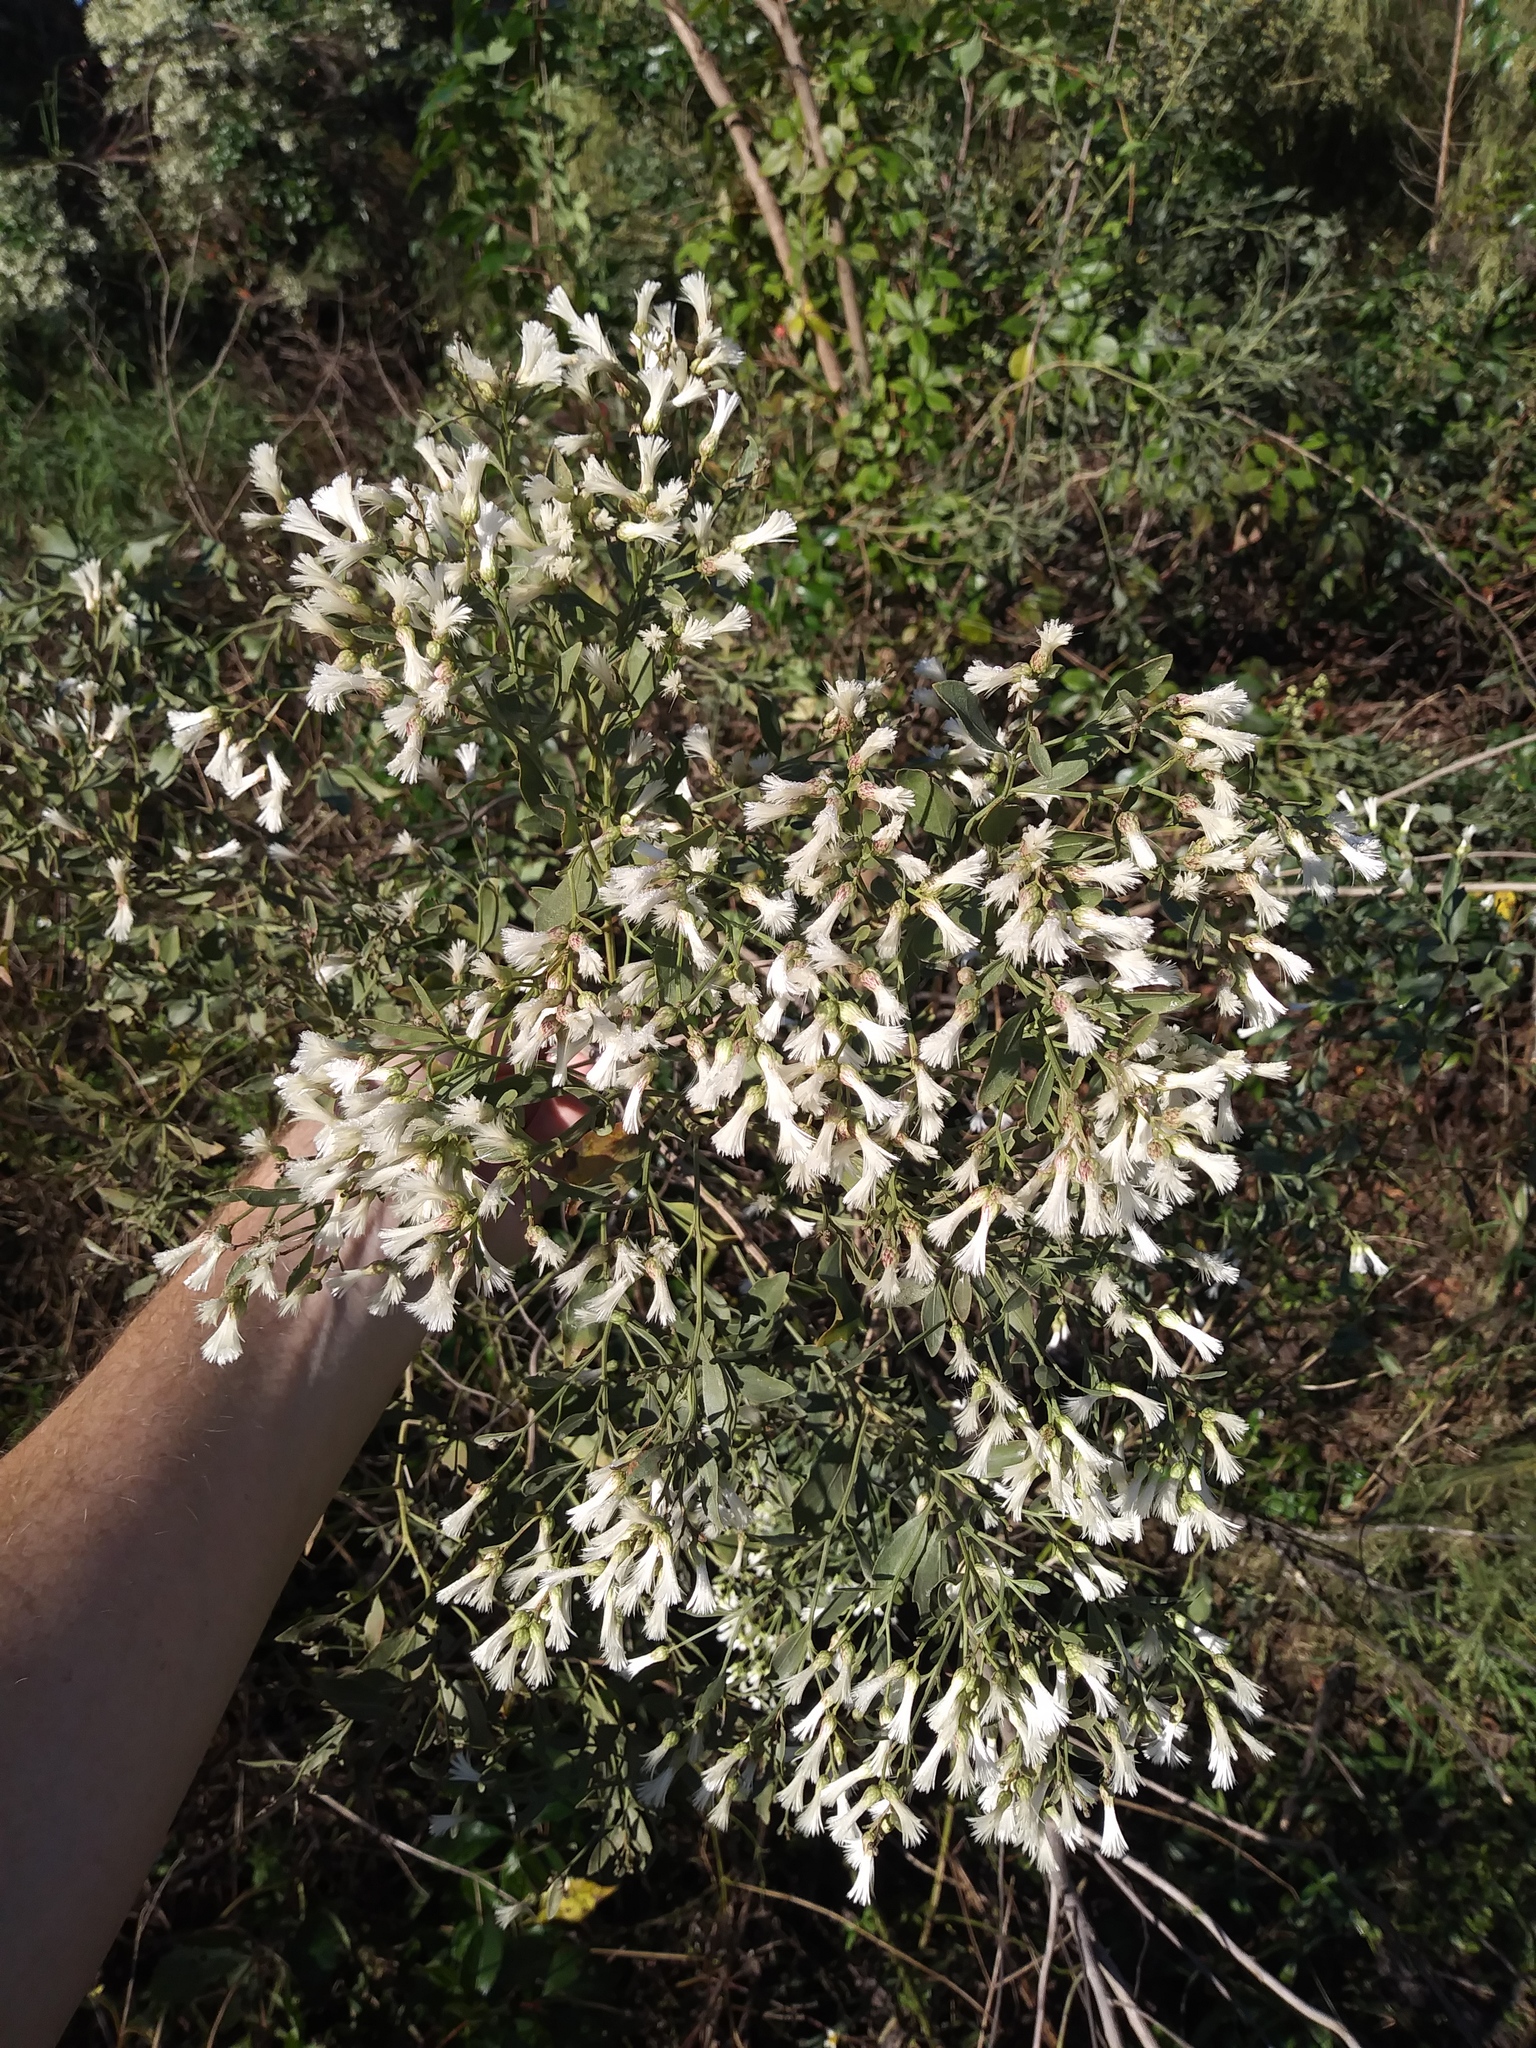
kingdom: Plantae
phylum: Tracheophyta
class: Magnoliopsida
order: Asterales
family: Asteraceae
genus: Baccharis
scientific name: Baccharis halimifolia
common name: Eastern baccharis
